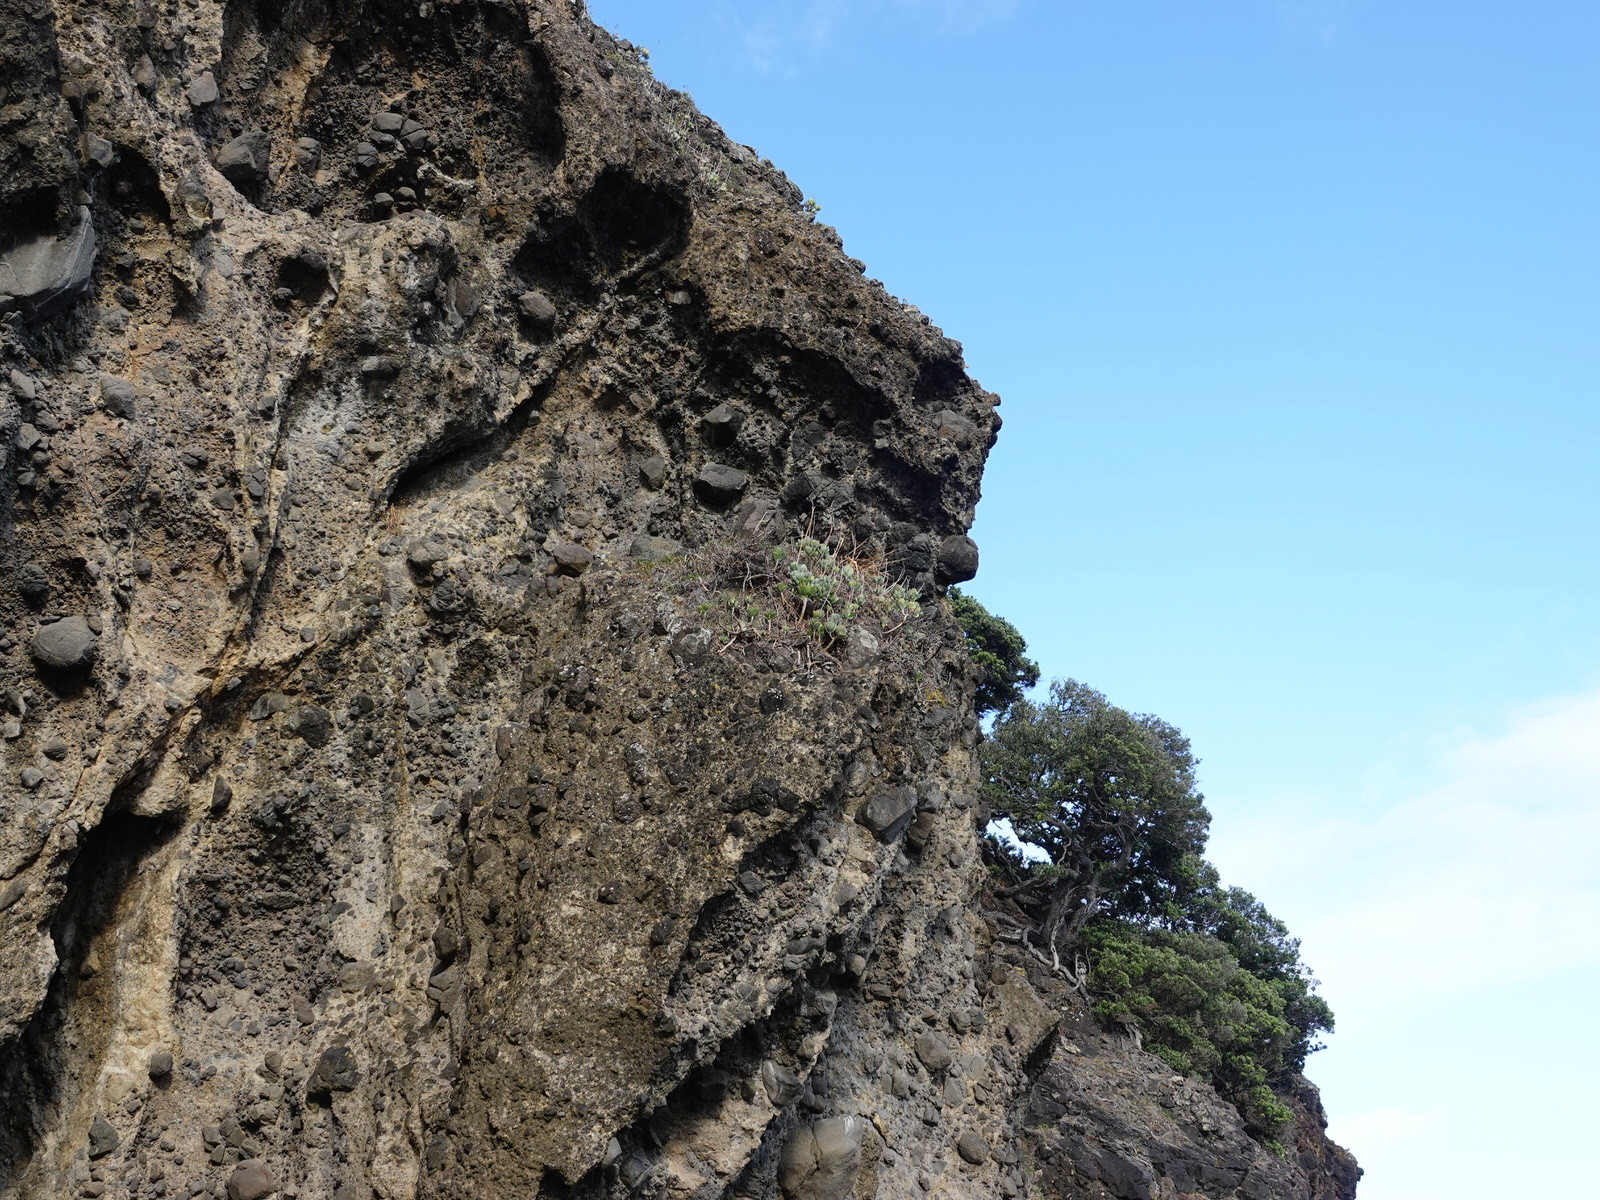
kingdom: Plantae
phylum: Tracheophyta
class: Magnoliopsida
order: Saxifragales
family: Crassulaceae
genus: Cotyledon
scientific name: Cotyledon orbiculata
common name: Pig's ear
